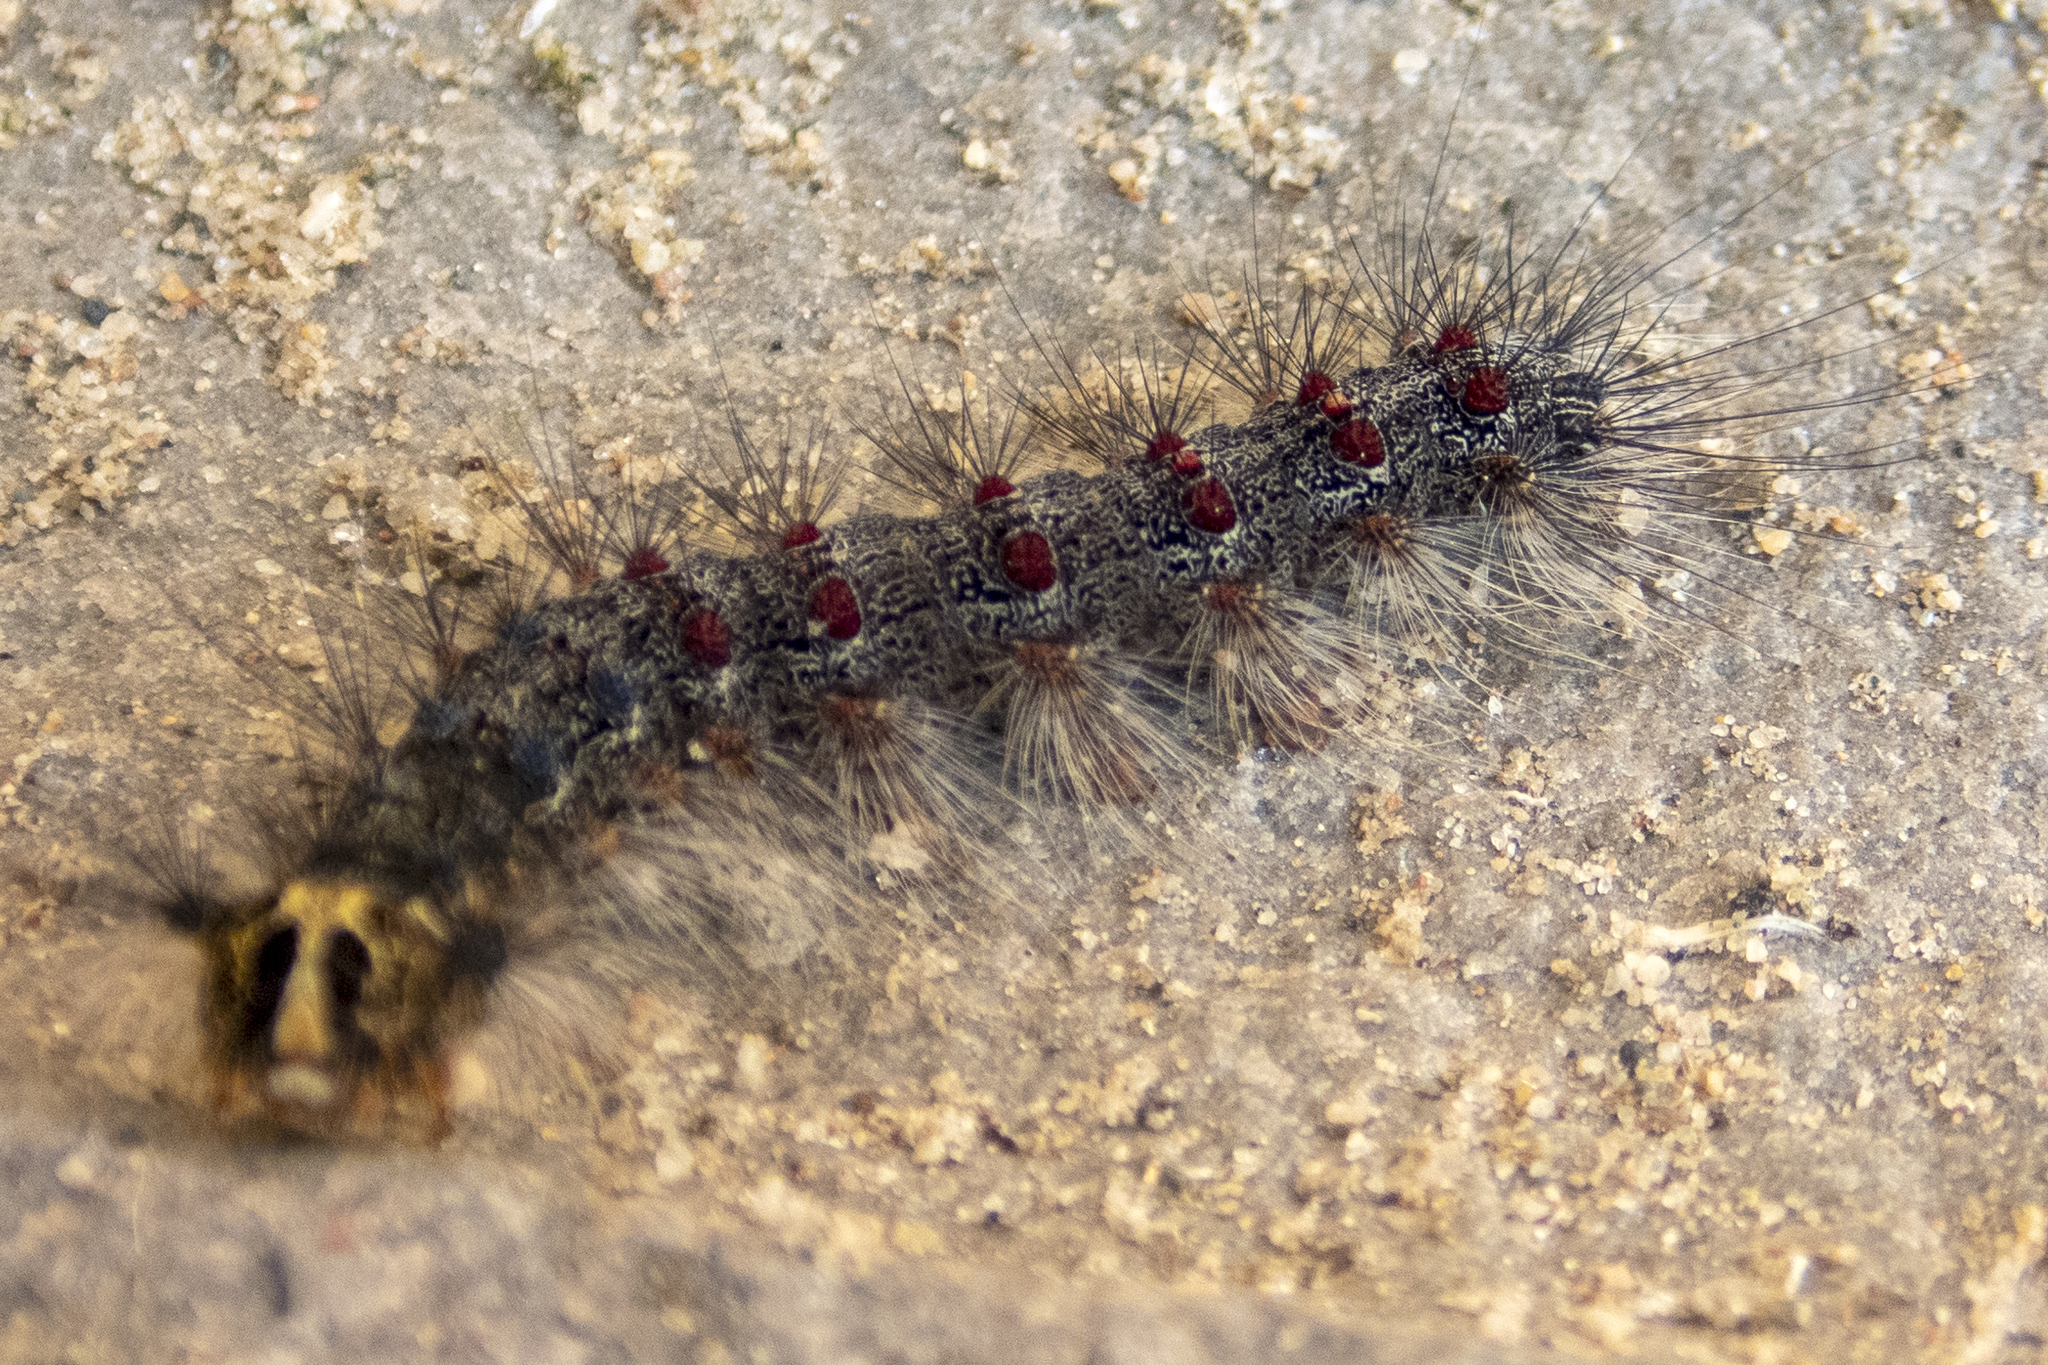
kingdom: Animalia
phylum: Arthropoda
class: Insecta
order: Lepidoptera
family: Erebidae
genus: Lymantria
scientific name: Lymantria dispar
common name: Gypsy moth
